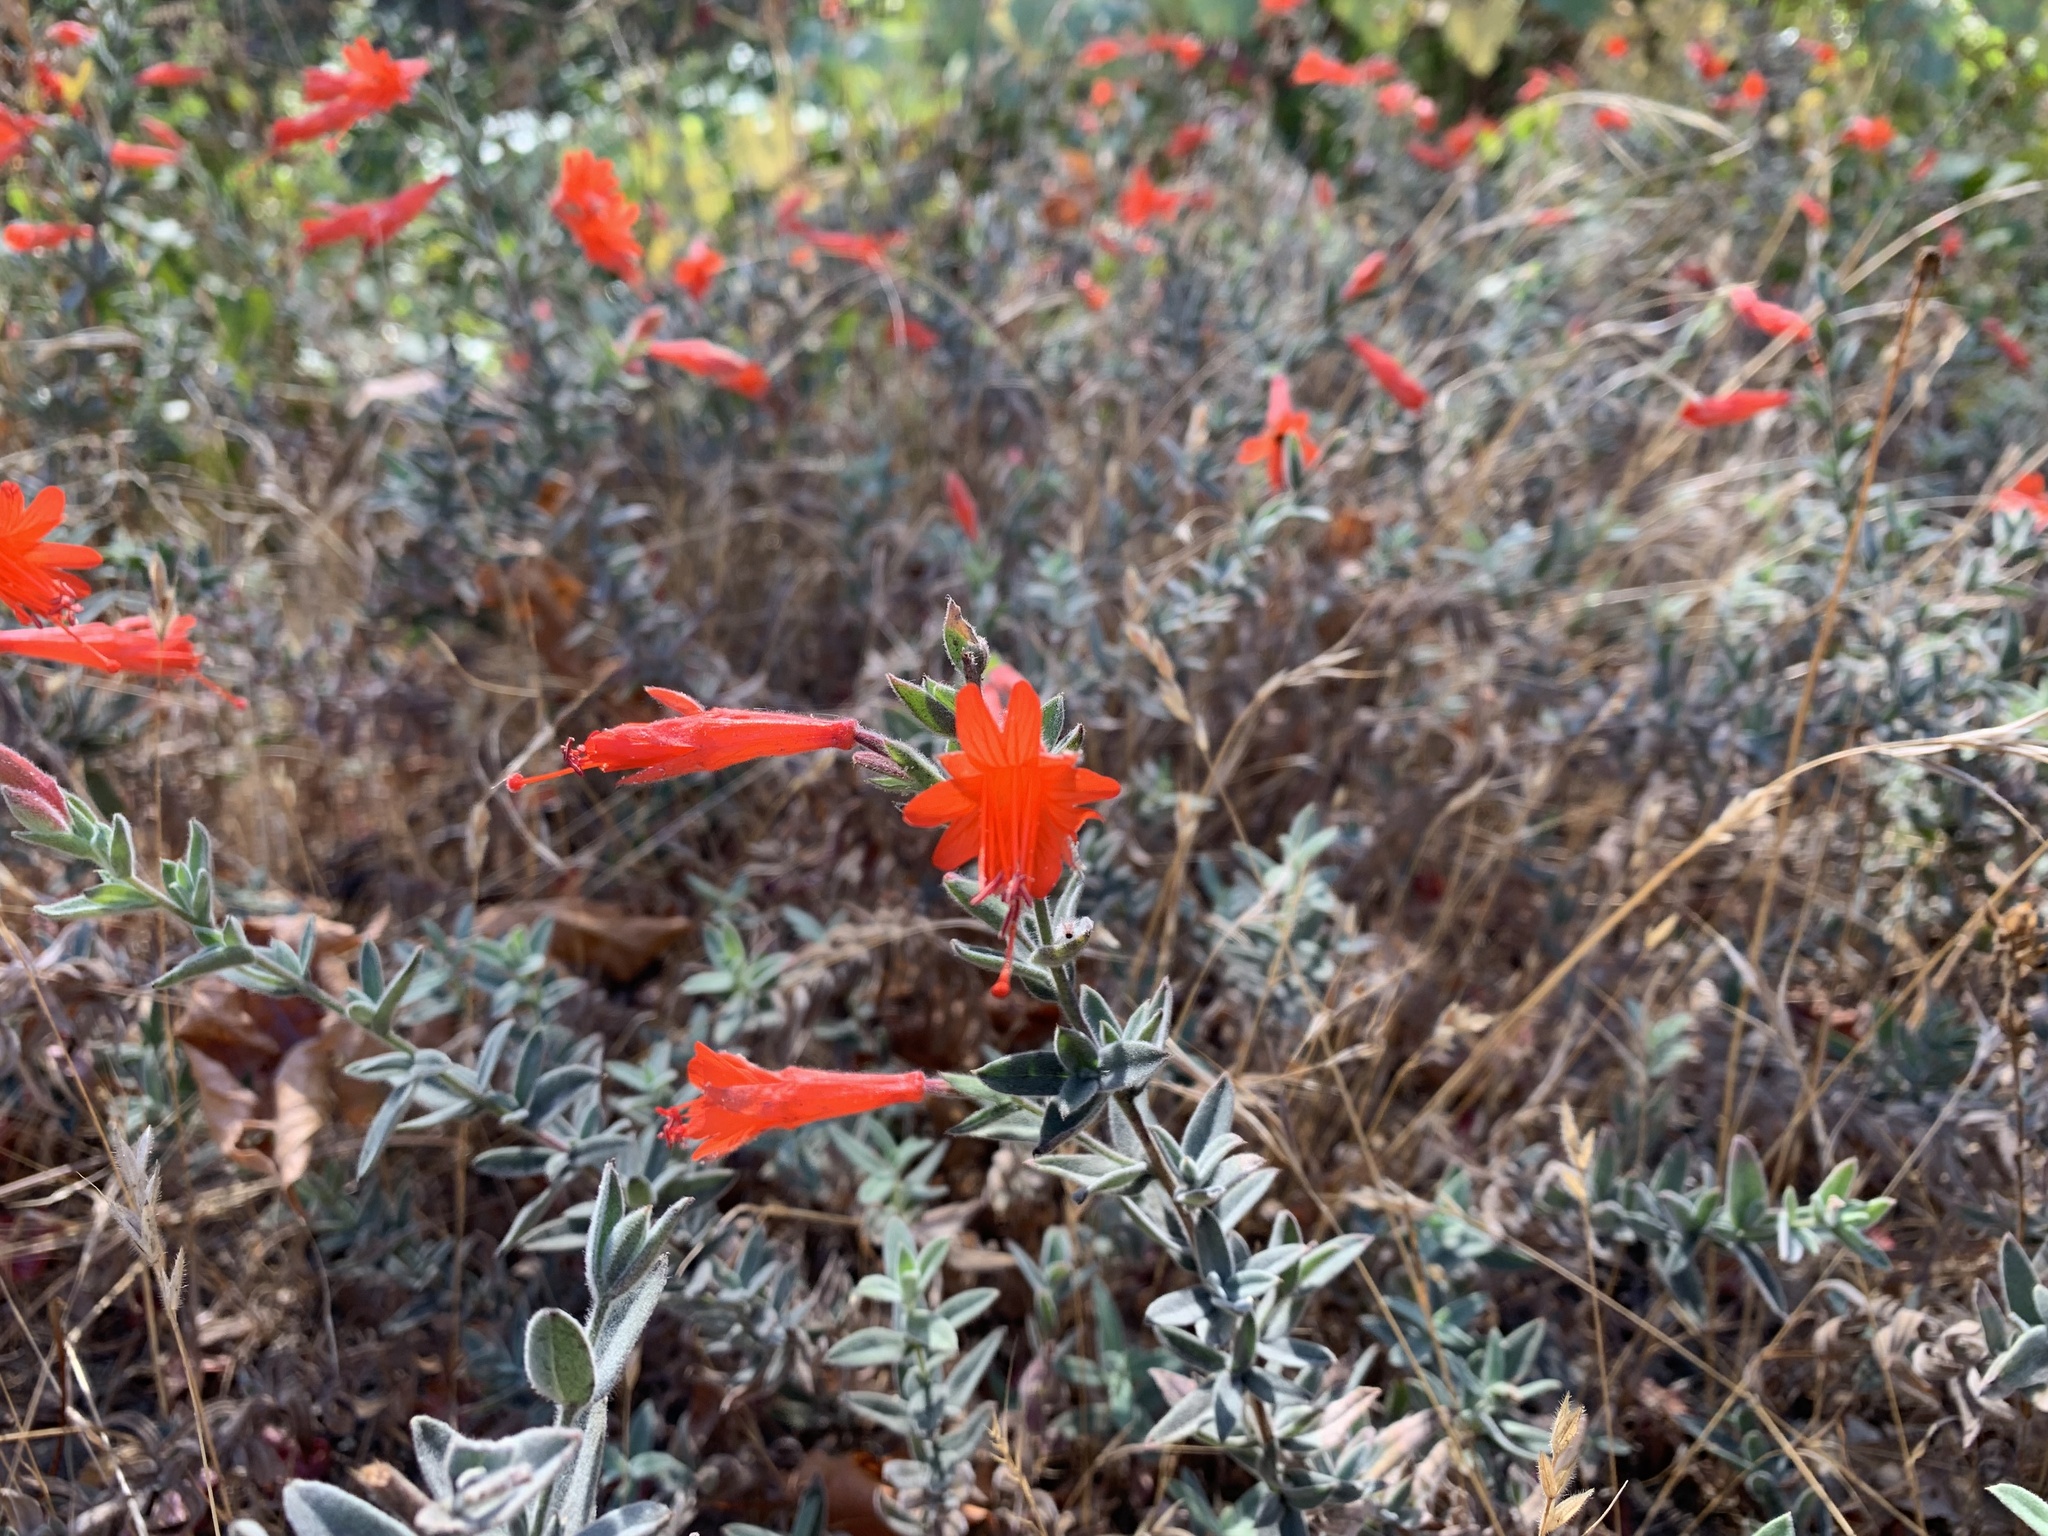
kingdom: Plantae
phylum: Tracheophyta
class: Magnoliopsida
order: Myrtales
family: Onagraceae
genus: Epilobium
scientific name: Epilobium canum
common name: California-fuchsia
